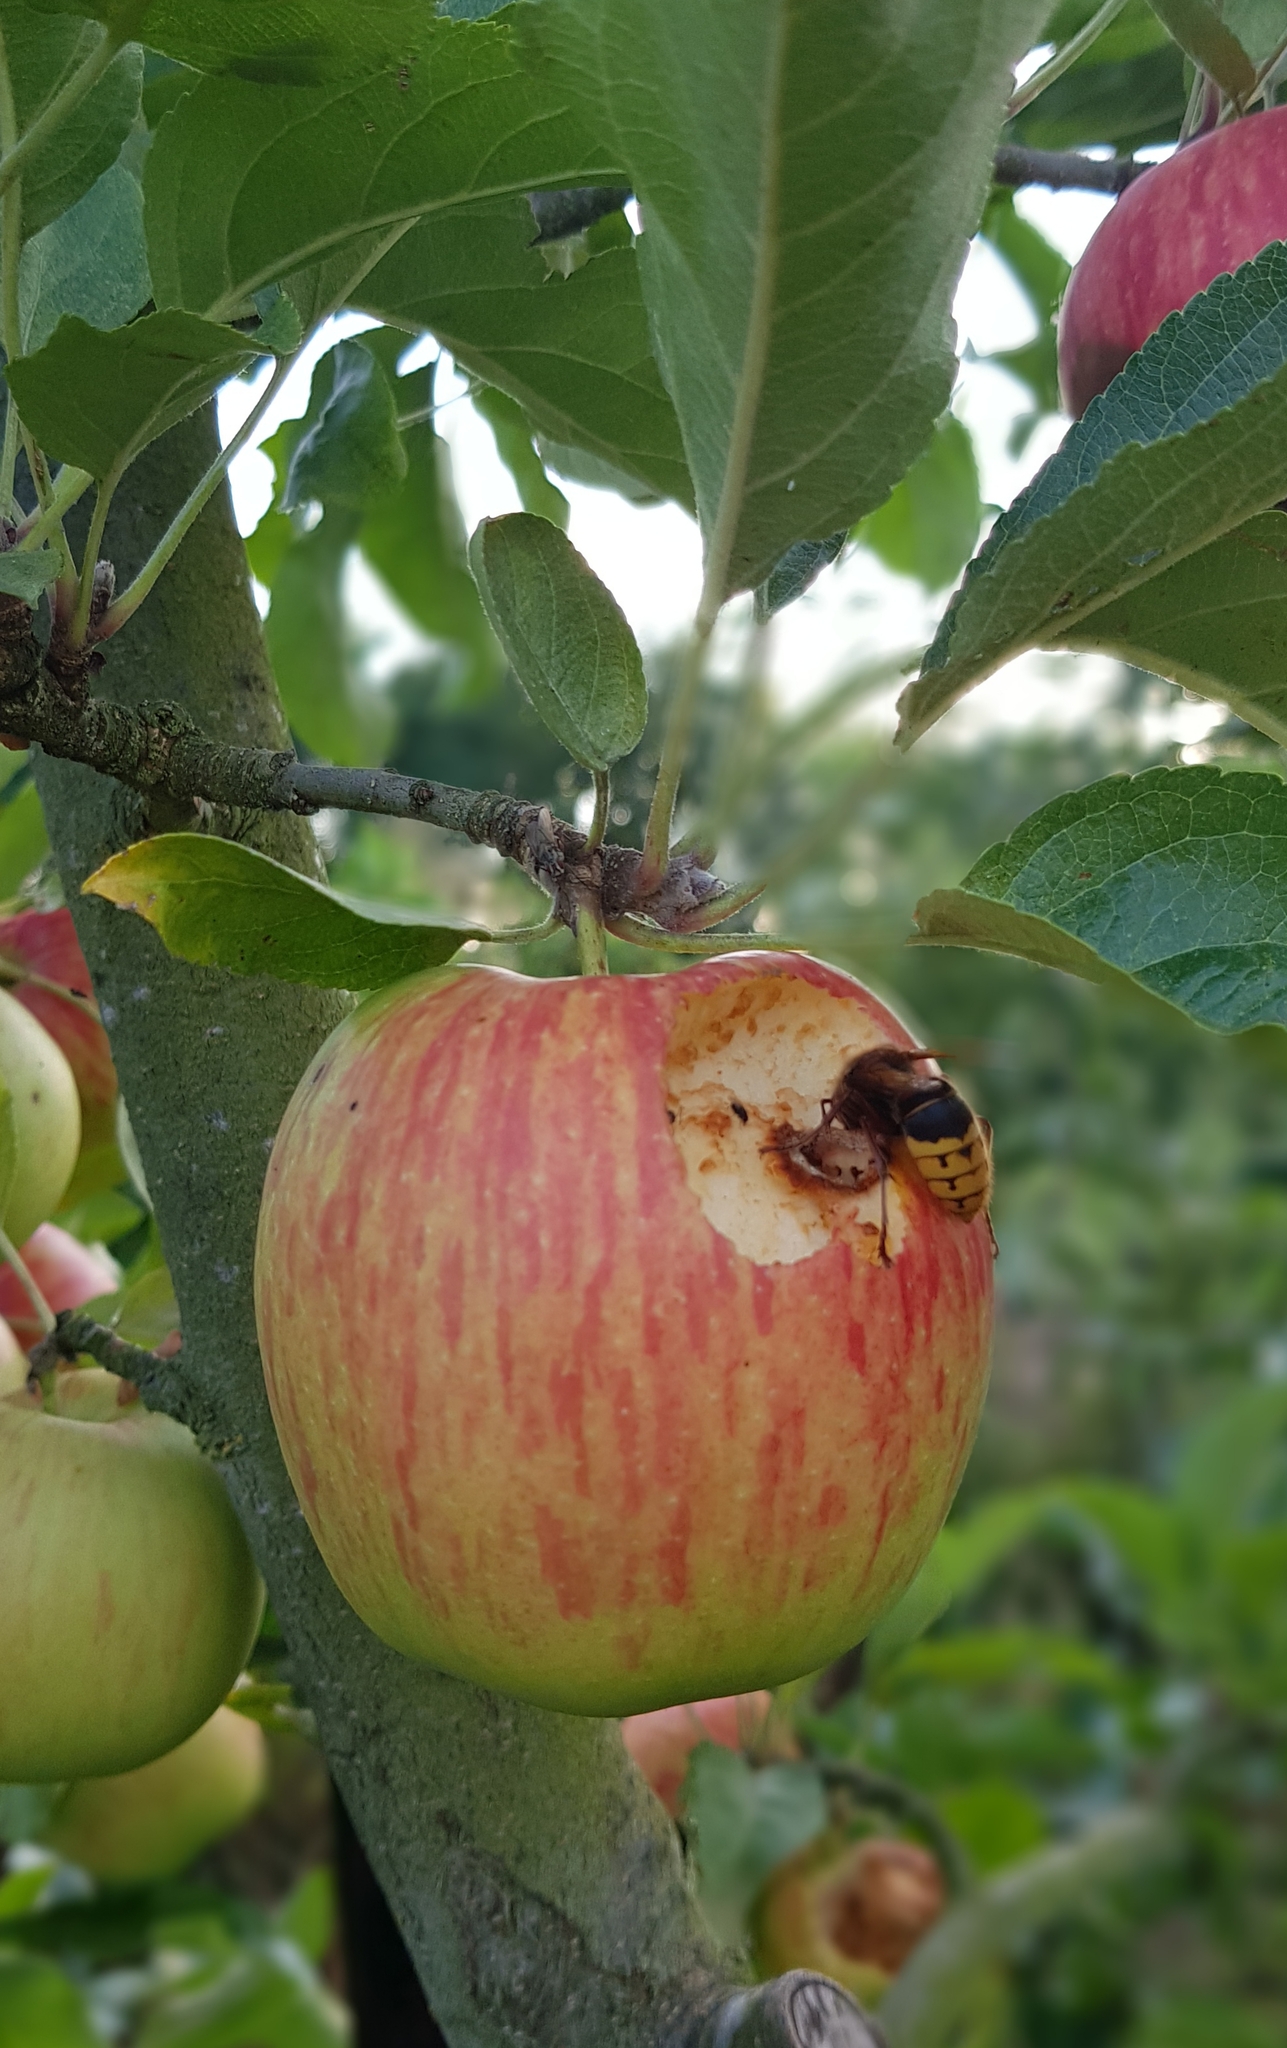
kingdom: Animalia
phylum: Arthropoda
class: Insecta
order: Hymenoptera
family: Vespidae
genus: Vespa
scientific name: Vespa crabro
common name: Hornet
